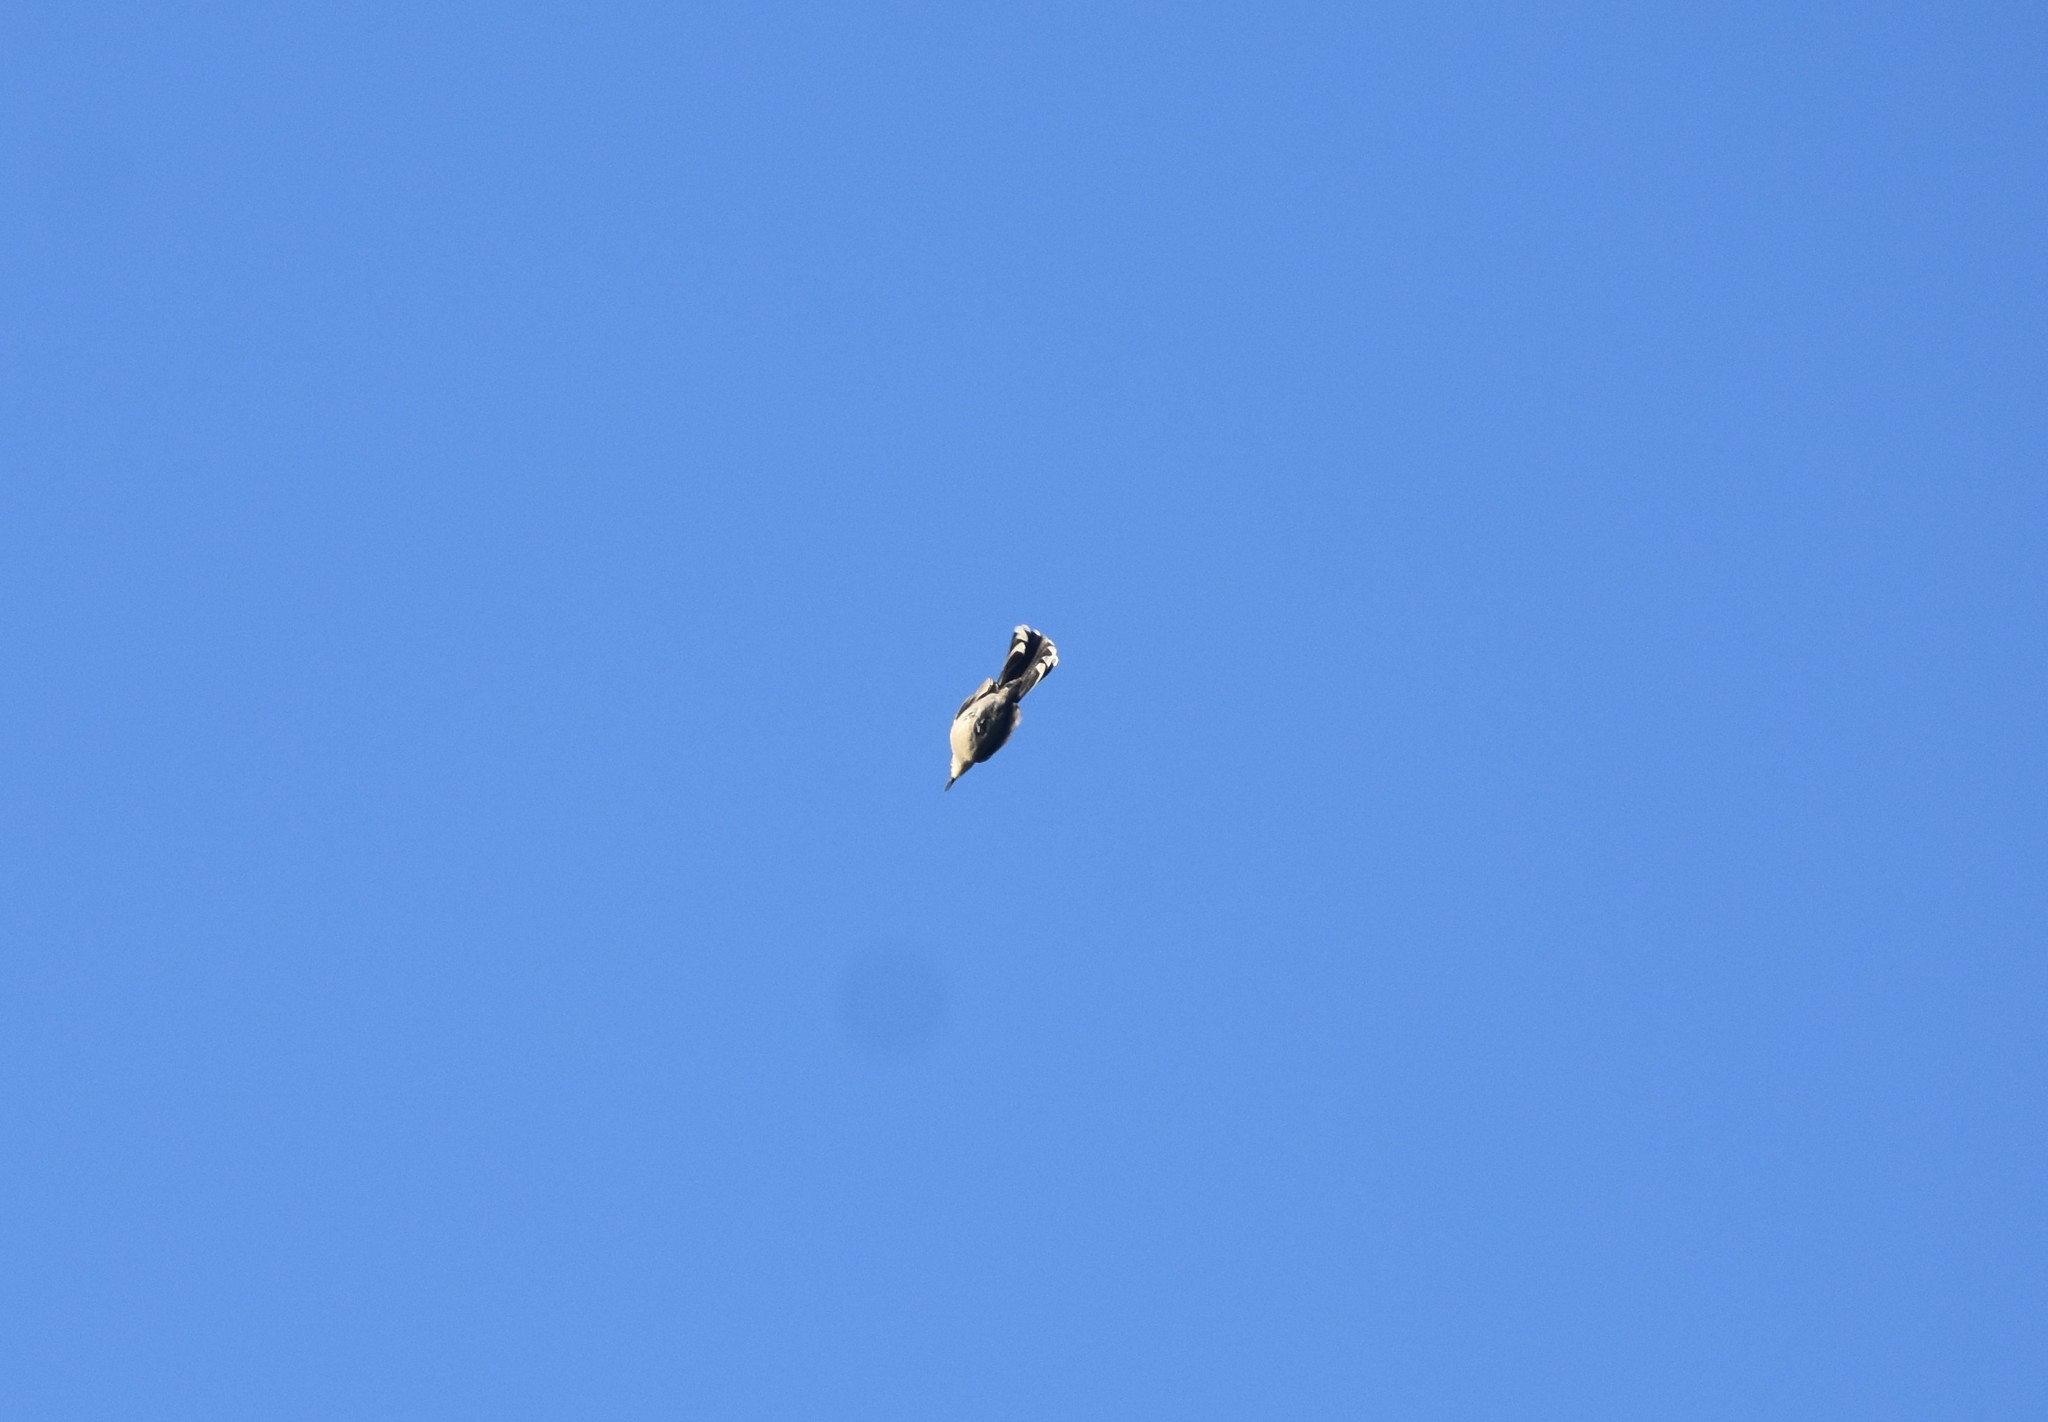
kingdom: Animalia
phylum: Chordata
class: Aves
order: Passeriformes
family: Malaconotidae
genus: Tchagra
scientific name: Tchagra tchagra
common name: Southern tchagra
